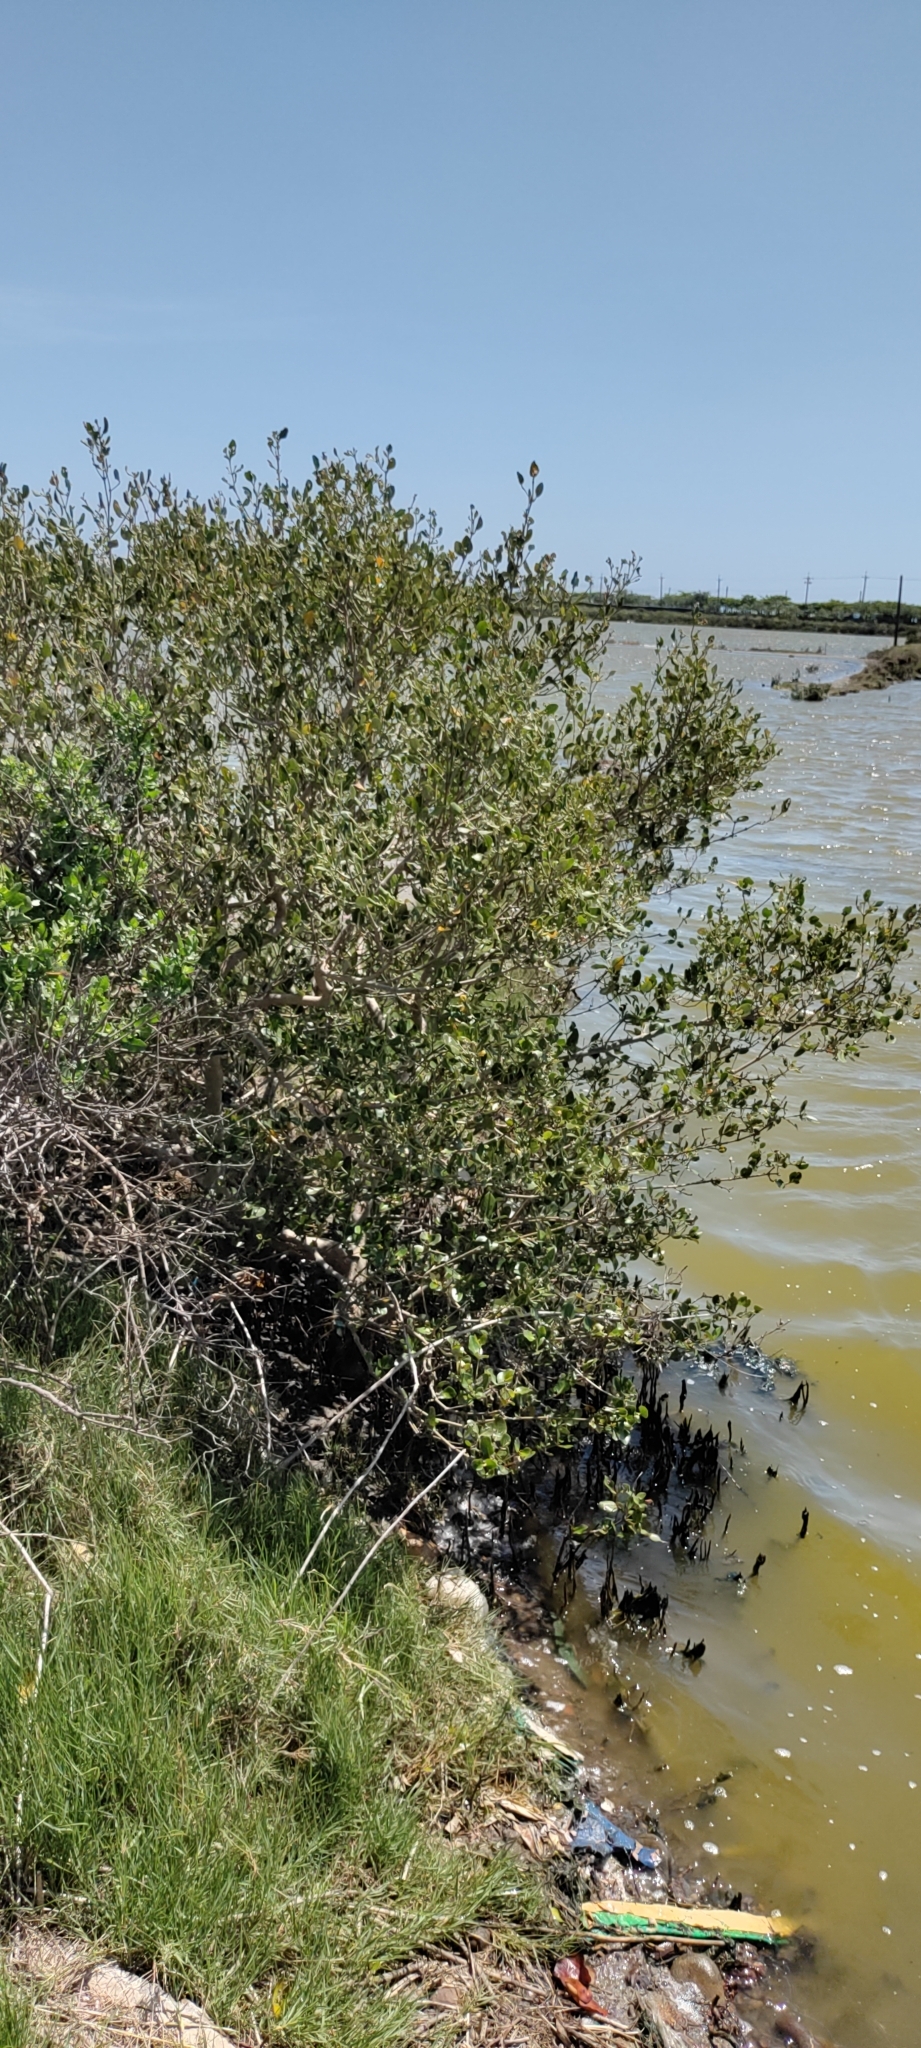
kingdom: Plantae
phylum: Tracheophyta
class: Magnoliopsida
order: Lamiales
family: Acanthaceae
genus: Avicennia
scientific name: Avicennia marina
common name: Gray mangrove
